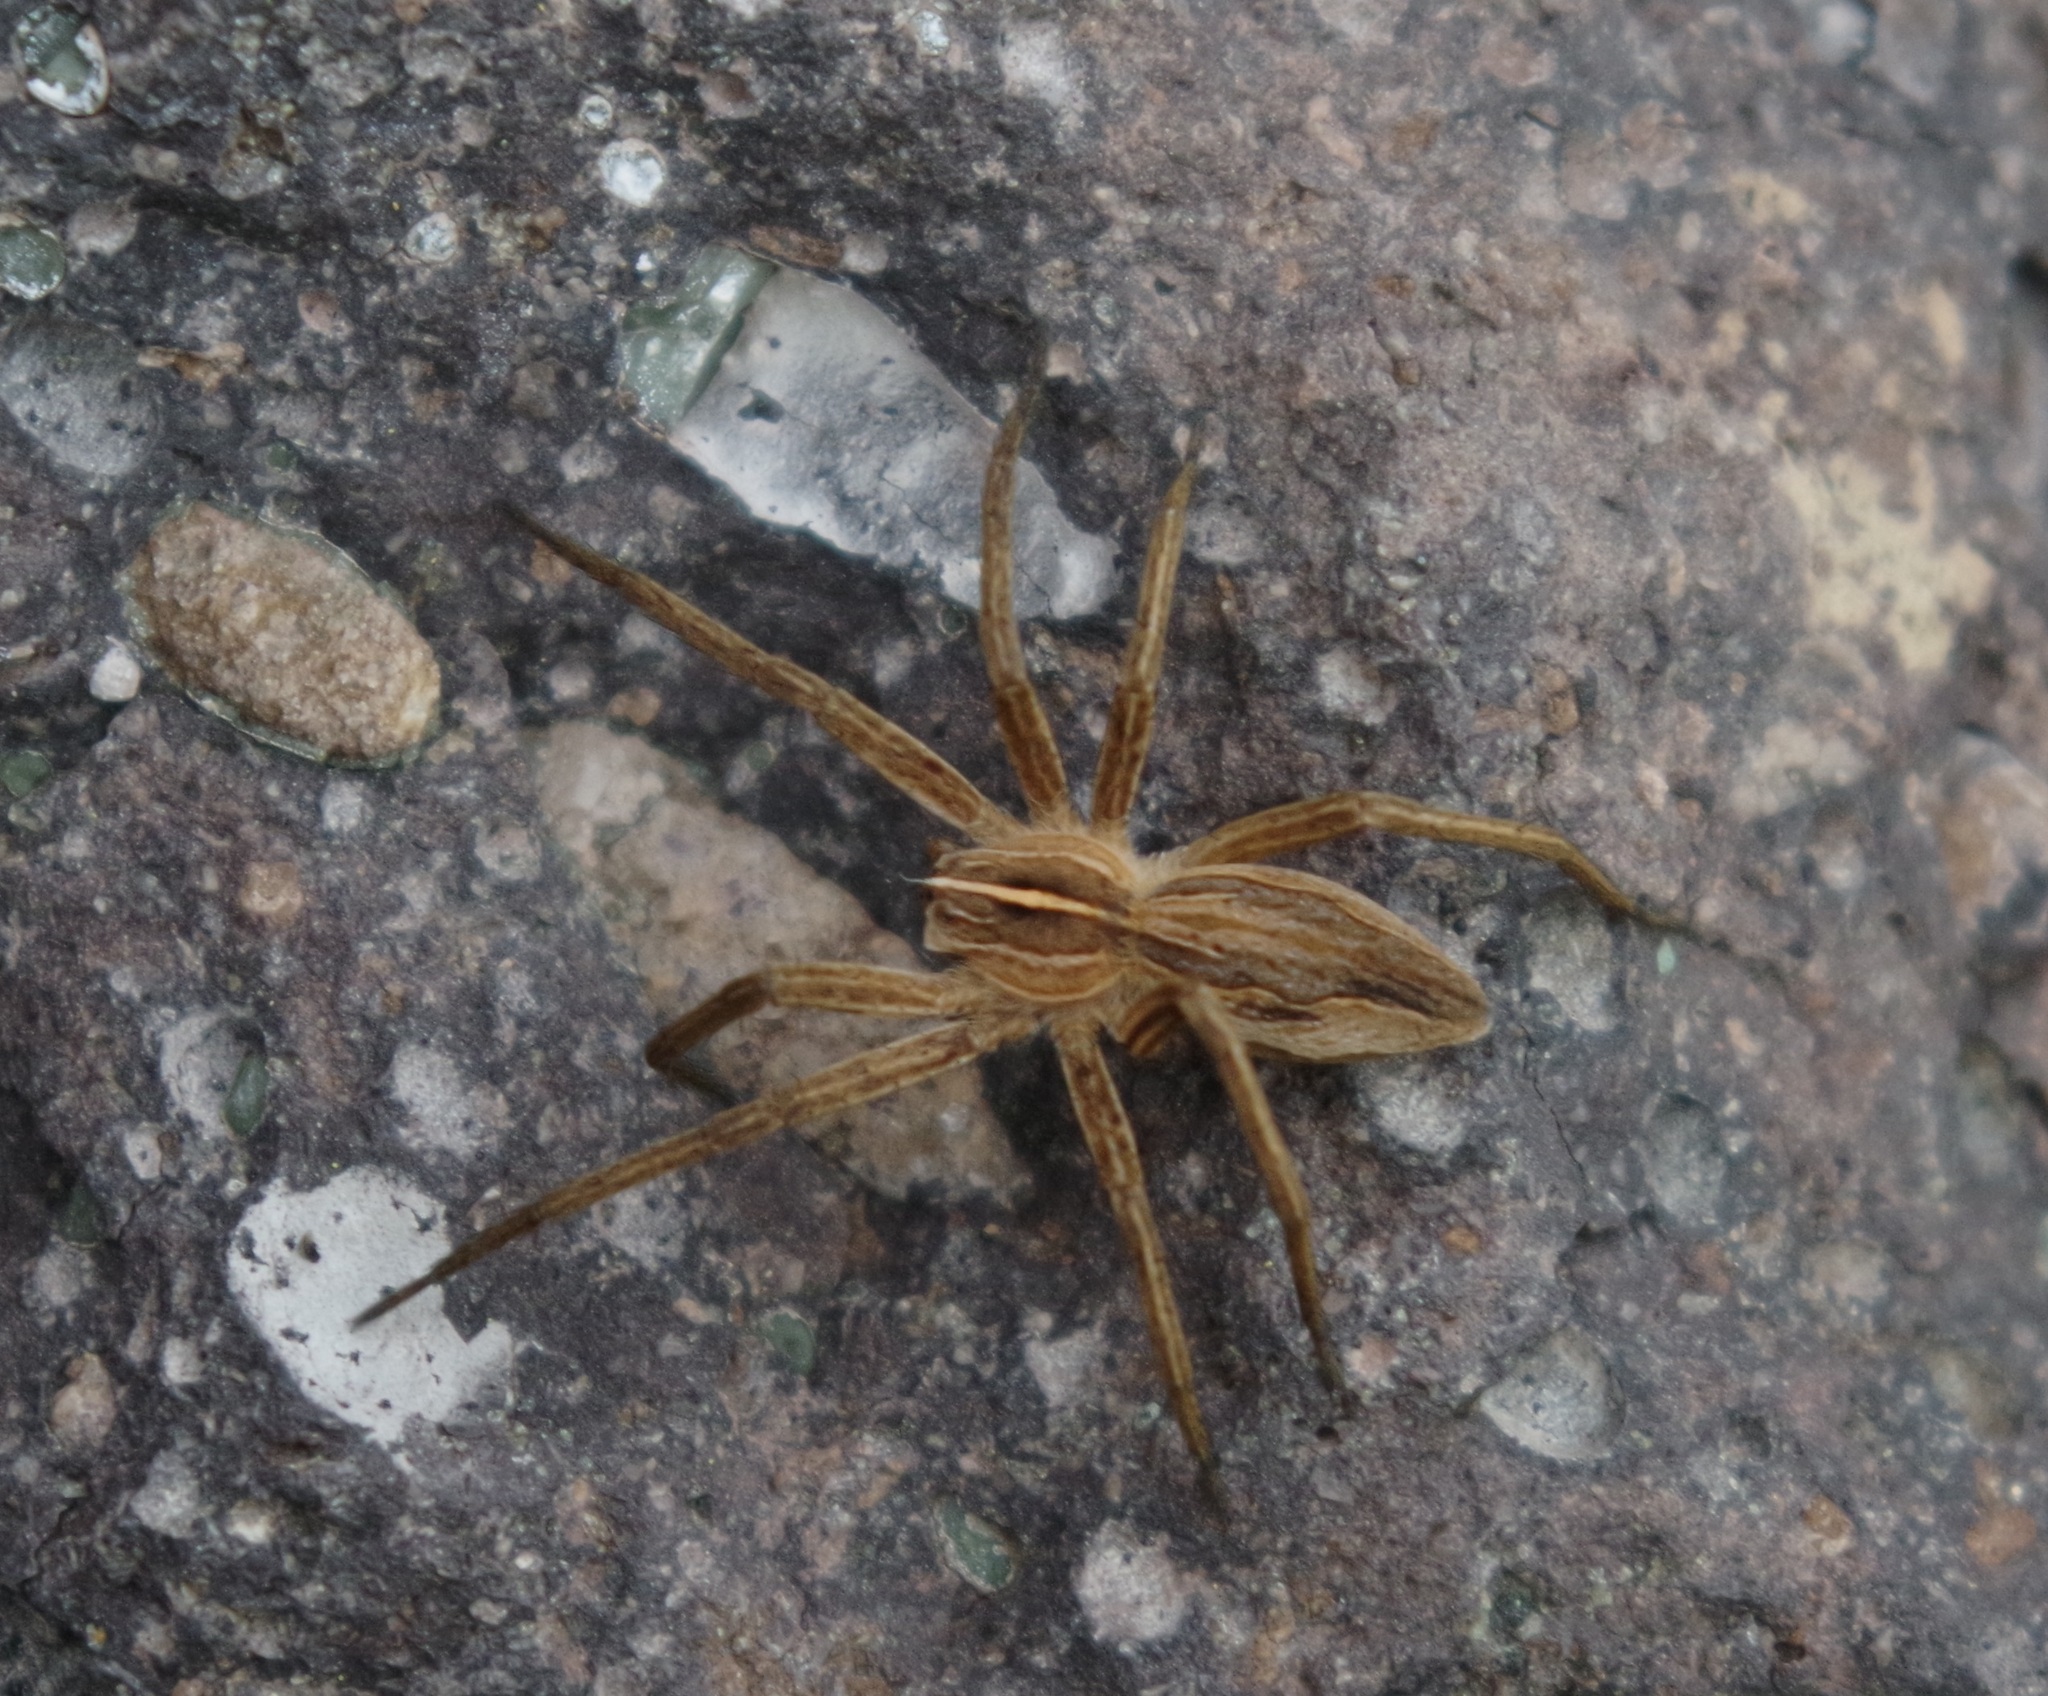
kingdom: Animalia
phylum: Arthropoda
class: Arachnida
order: Araneae
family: Pisauridae
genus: Pisaura
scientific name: Pisaura mirabilis
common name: Tent spider
